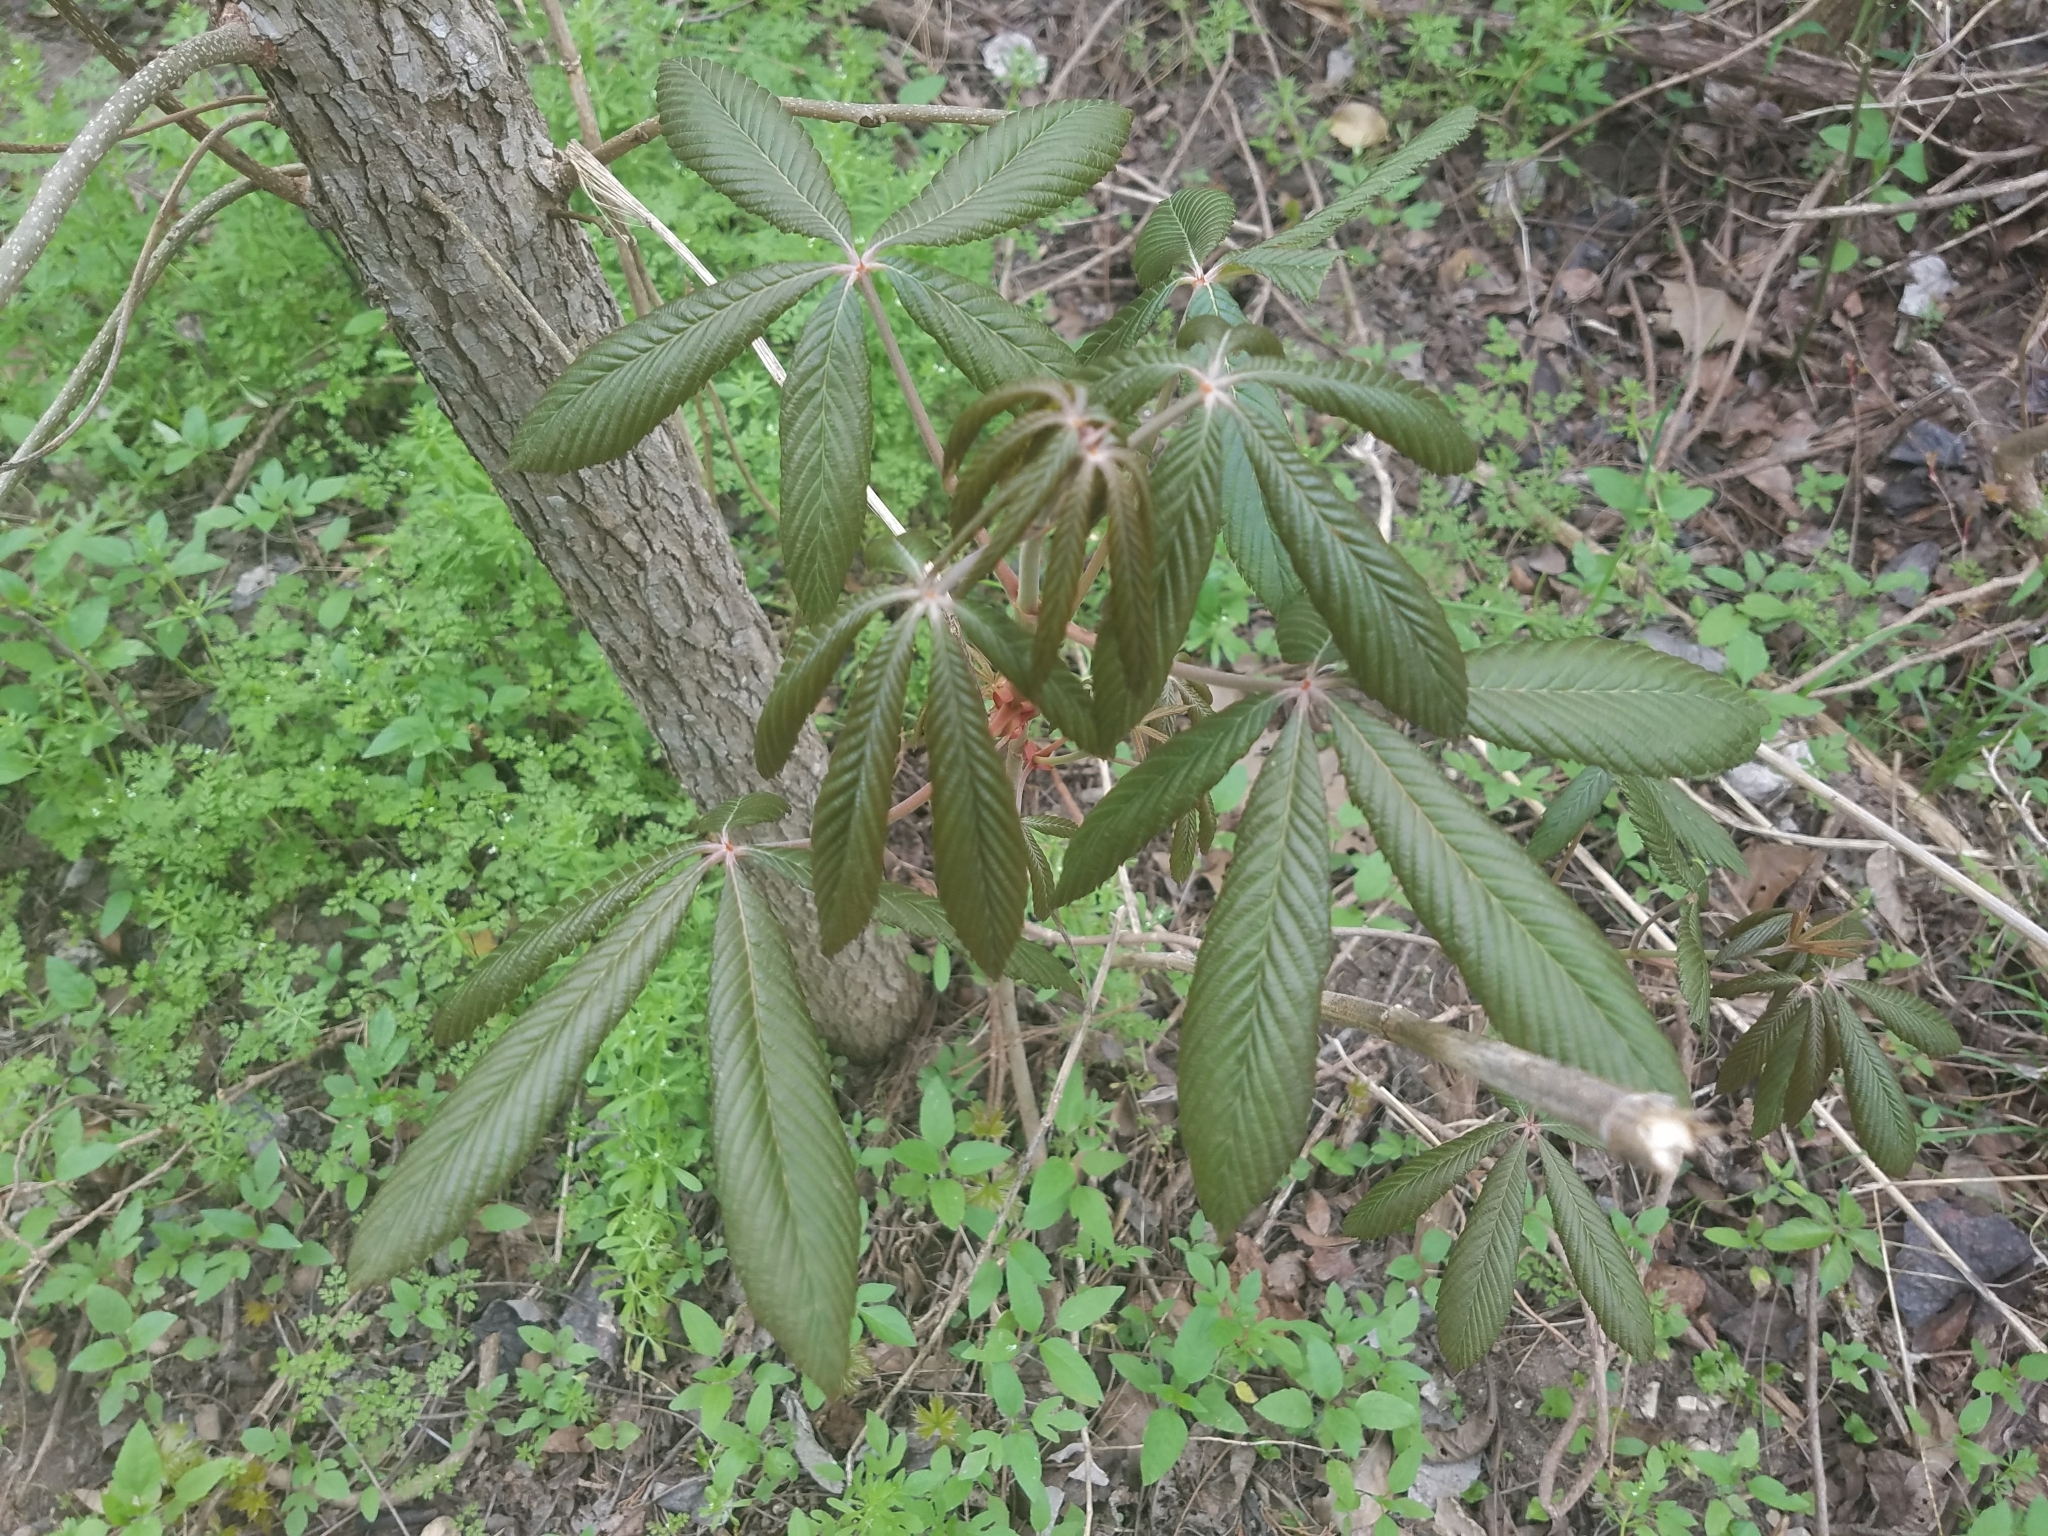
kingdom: Plantae
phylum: Tracheophyta
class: Magnoliopsida
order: Sapindales
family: Sapindaceae
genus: Aesculus
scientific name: Aesculus pavia
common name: Red buckeye
